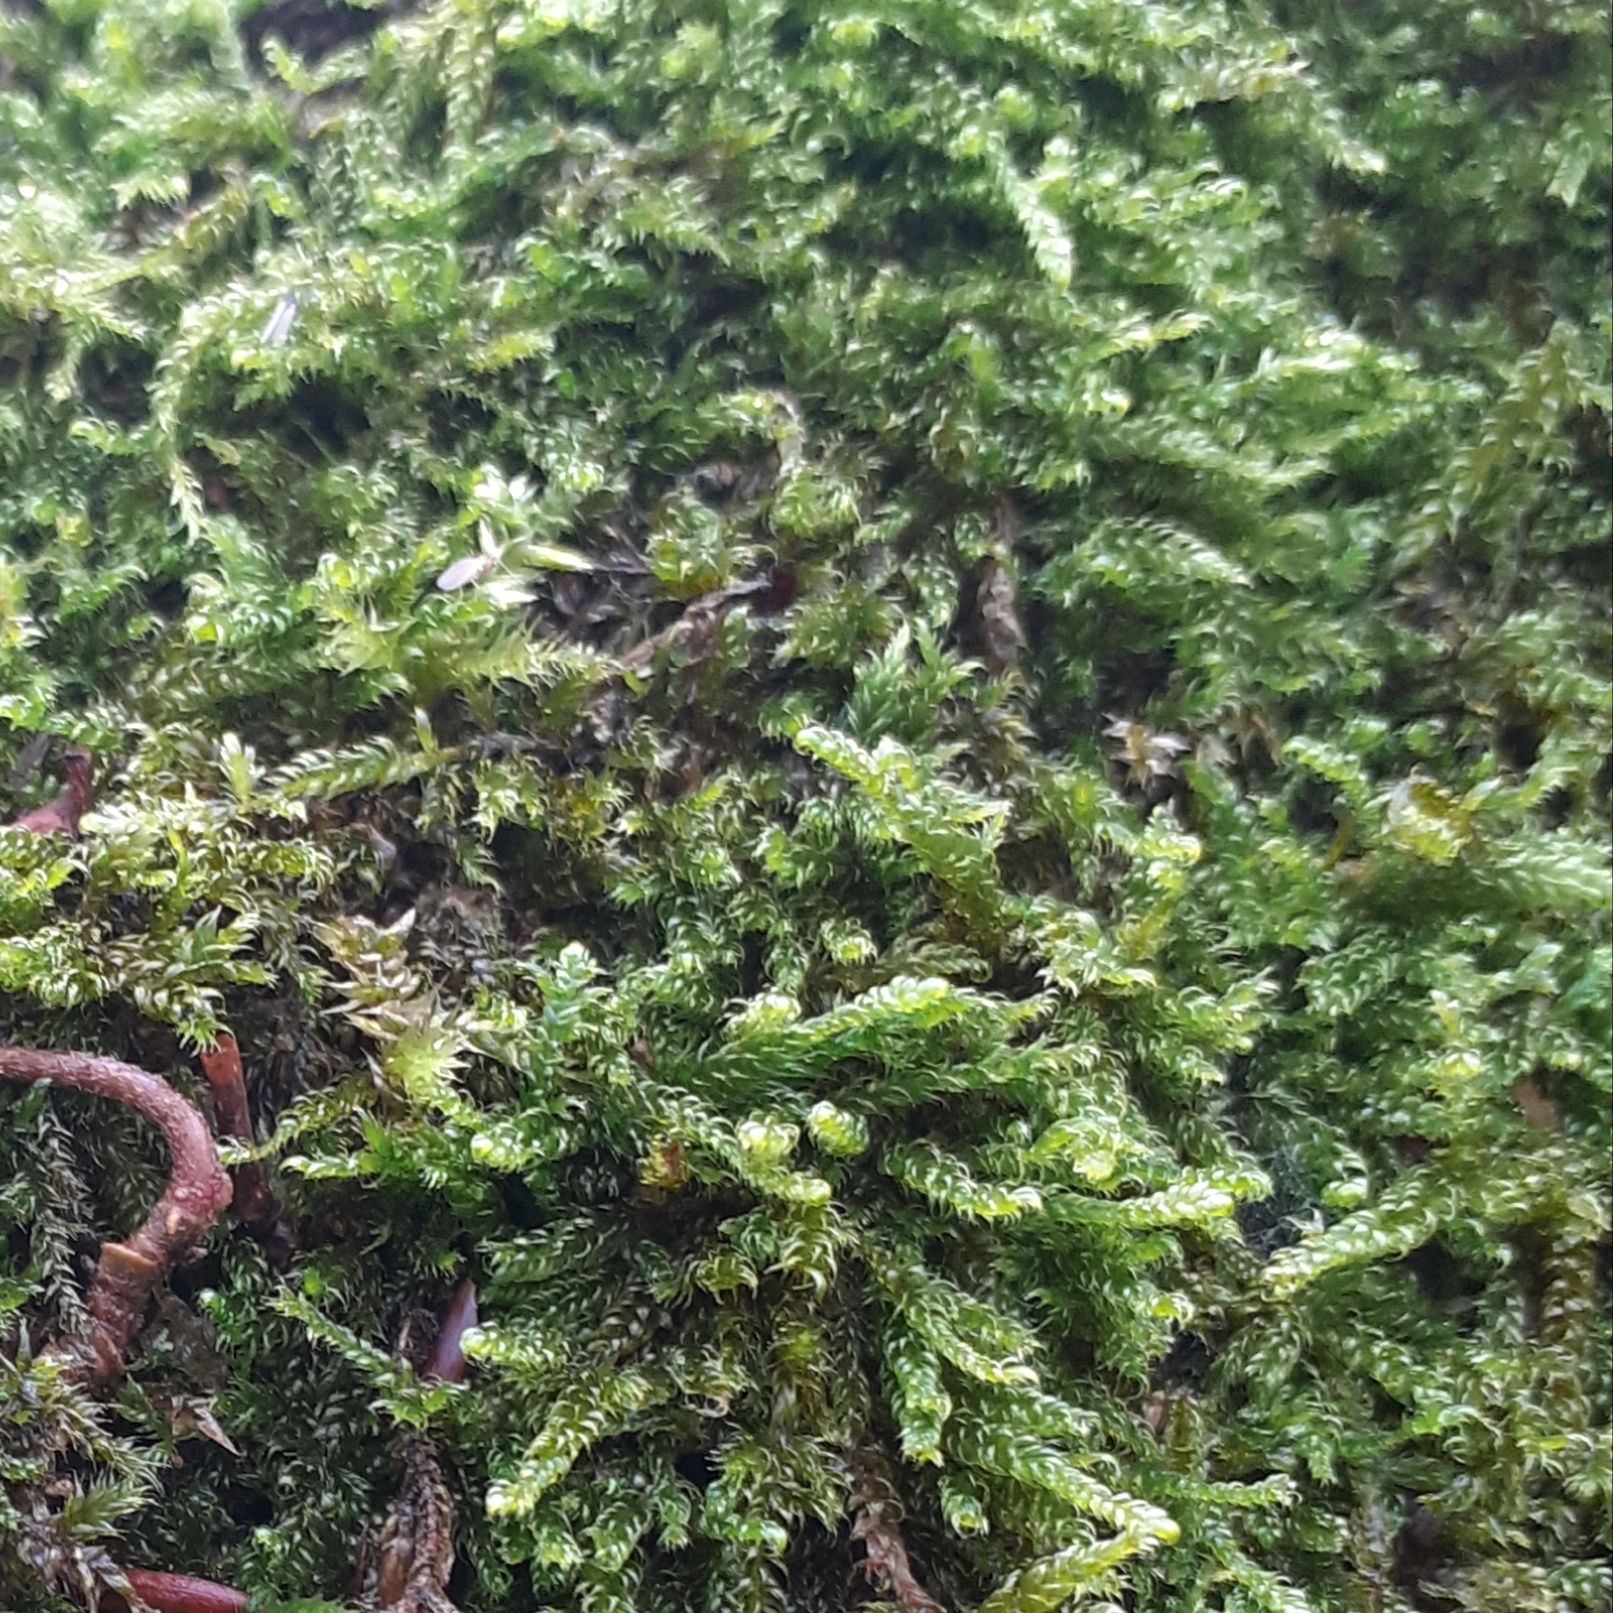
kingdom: Plantae
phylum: Bryophyta
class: Bryopsida
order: Hypnales
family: Hypnaceae
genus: Hypnum
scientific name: Hypnum cupressiforme
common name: Cypress-leaved plait-moss
